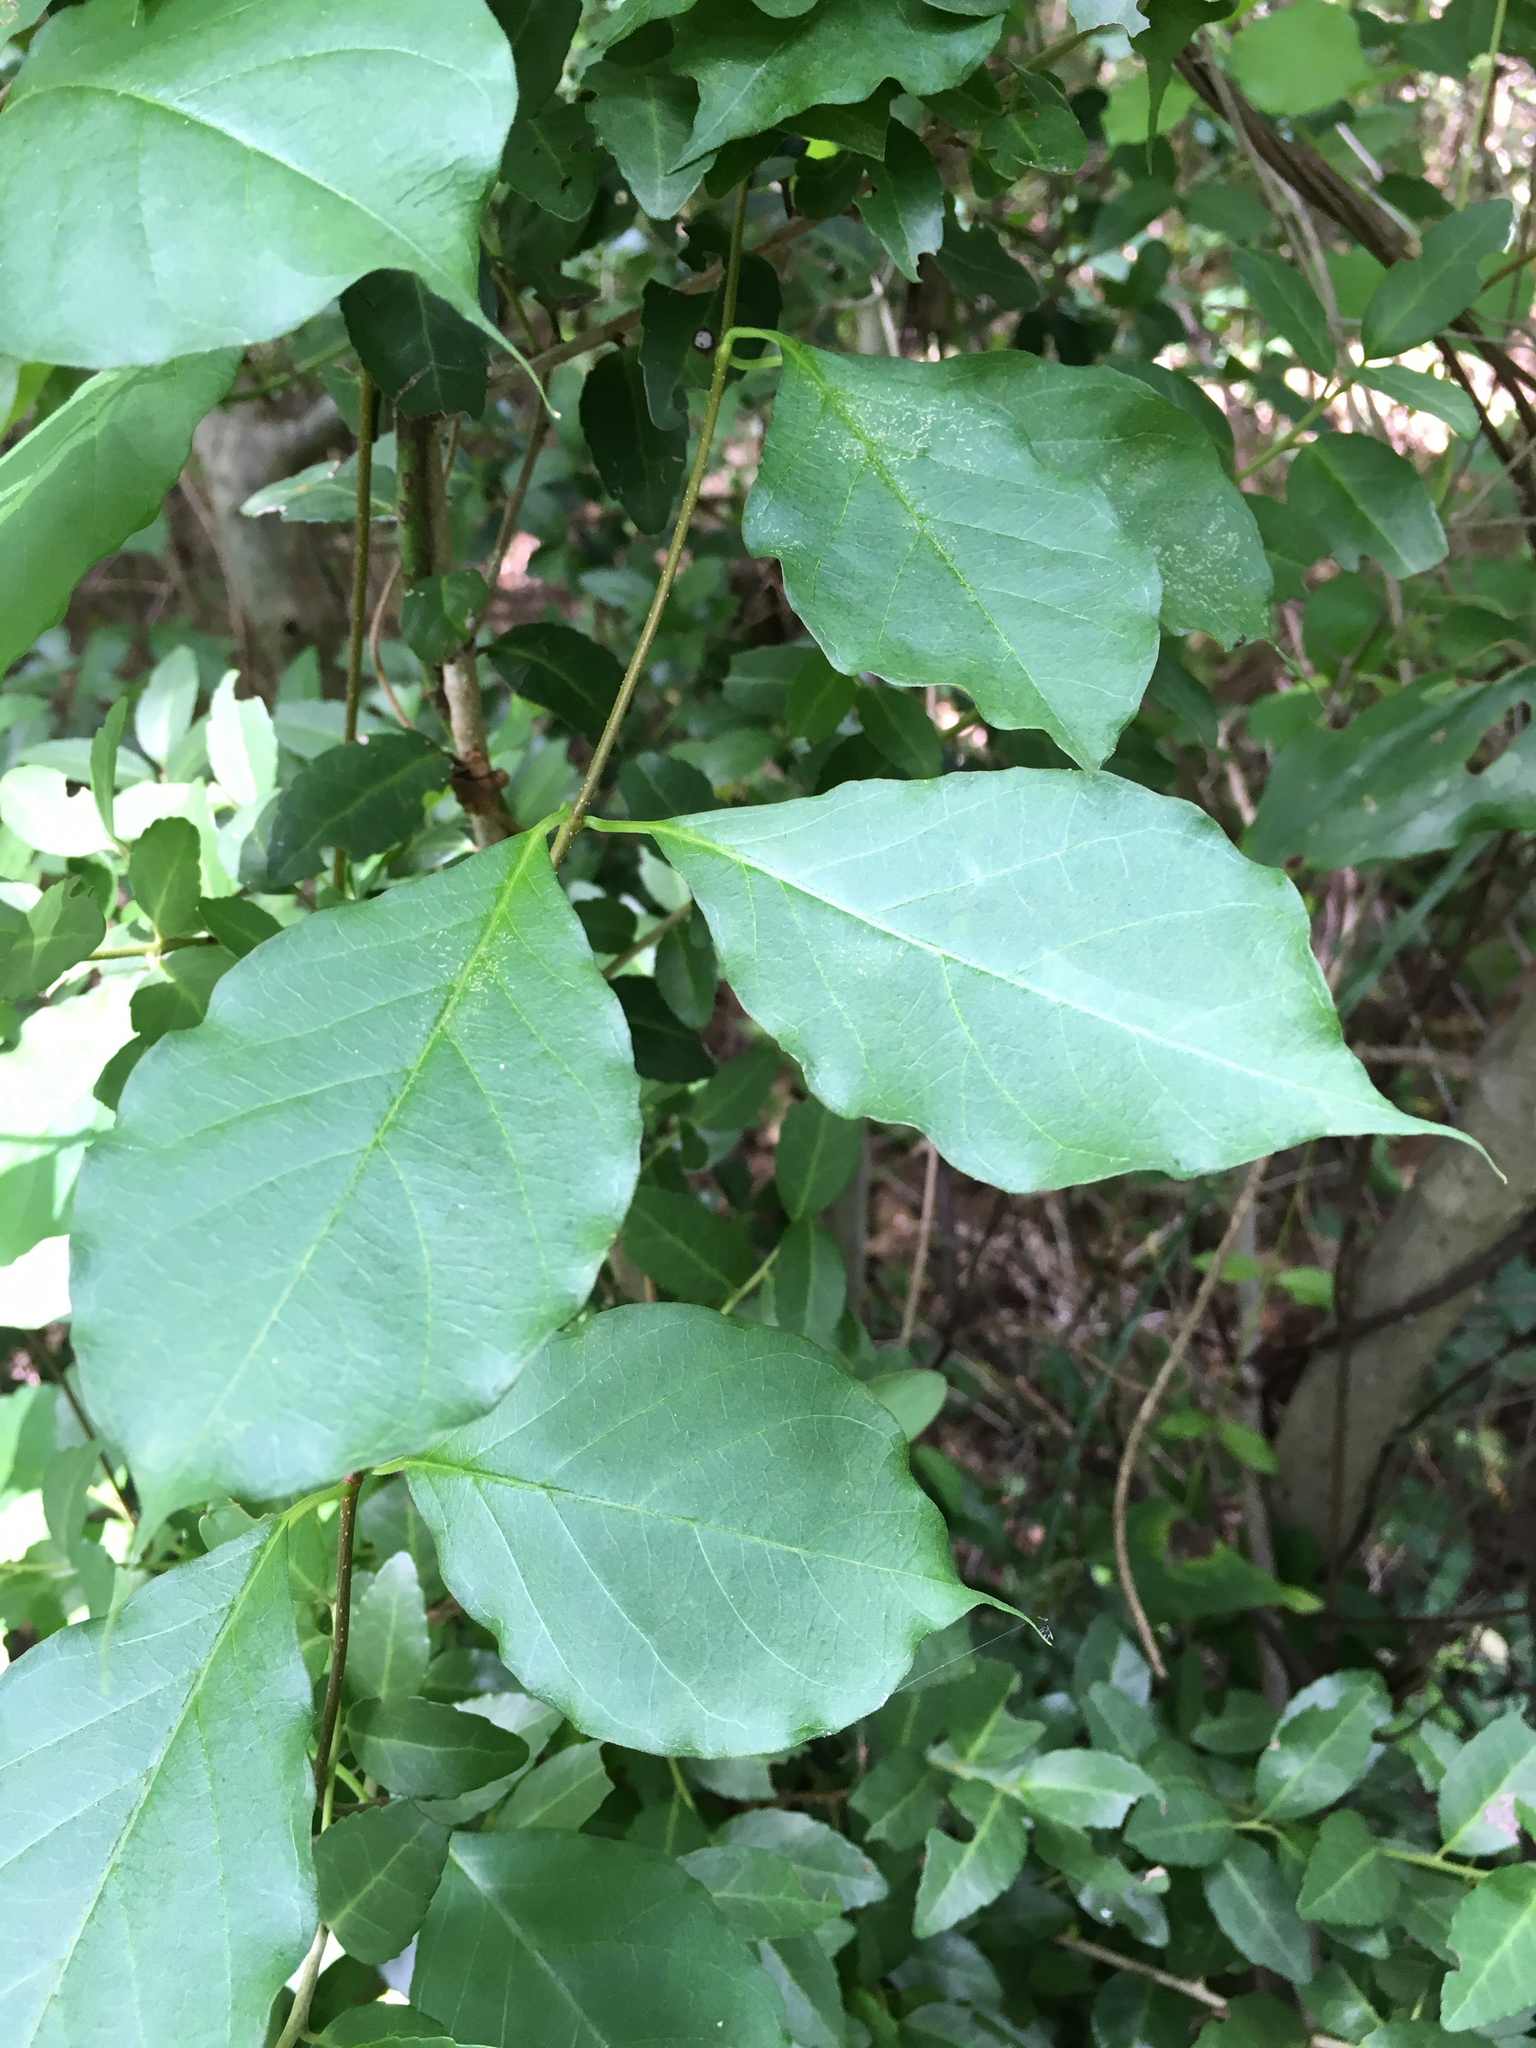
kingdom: Plantae
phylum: Tracheophyta
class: Magnoliopsida
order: Gentianales
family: Apocynaceae
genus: Thyrsanthella
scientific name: Thyrsanthella difformis
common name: Climbing dogbane
